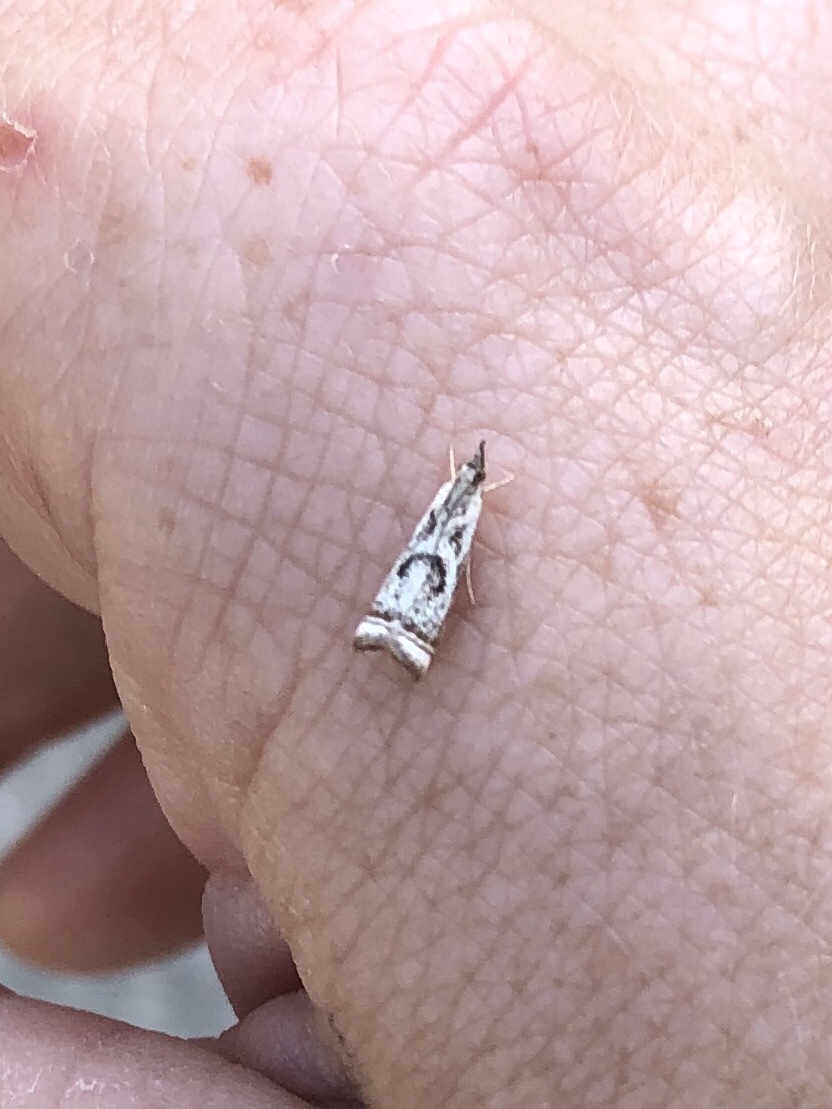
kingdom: Animalia
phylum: Arthropoda
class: Insecta
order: Lepidoptera
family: Crambidae
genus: Microcrambus
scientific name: Microcrambus elegans
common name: Elegant grass-veneer
